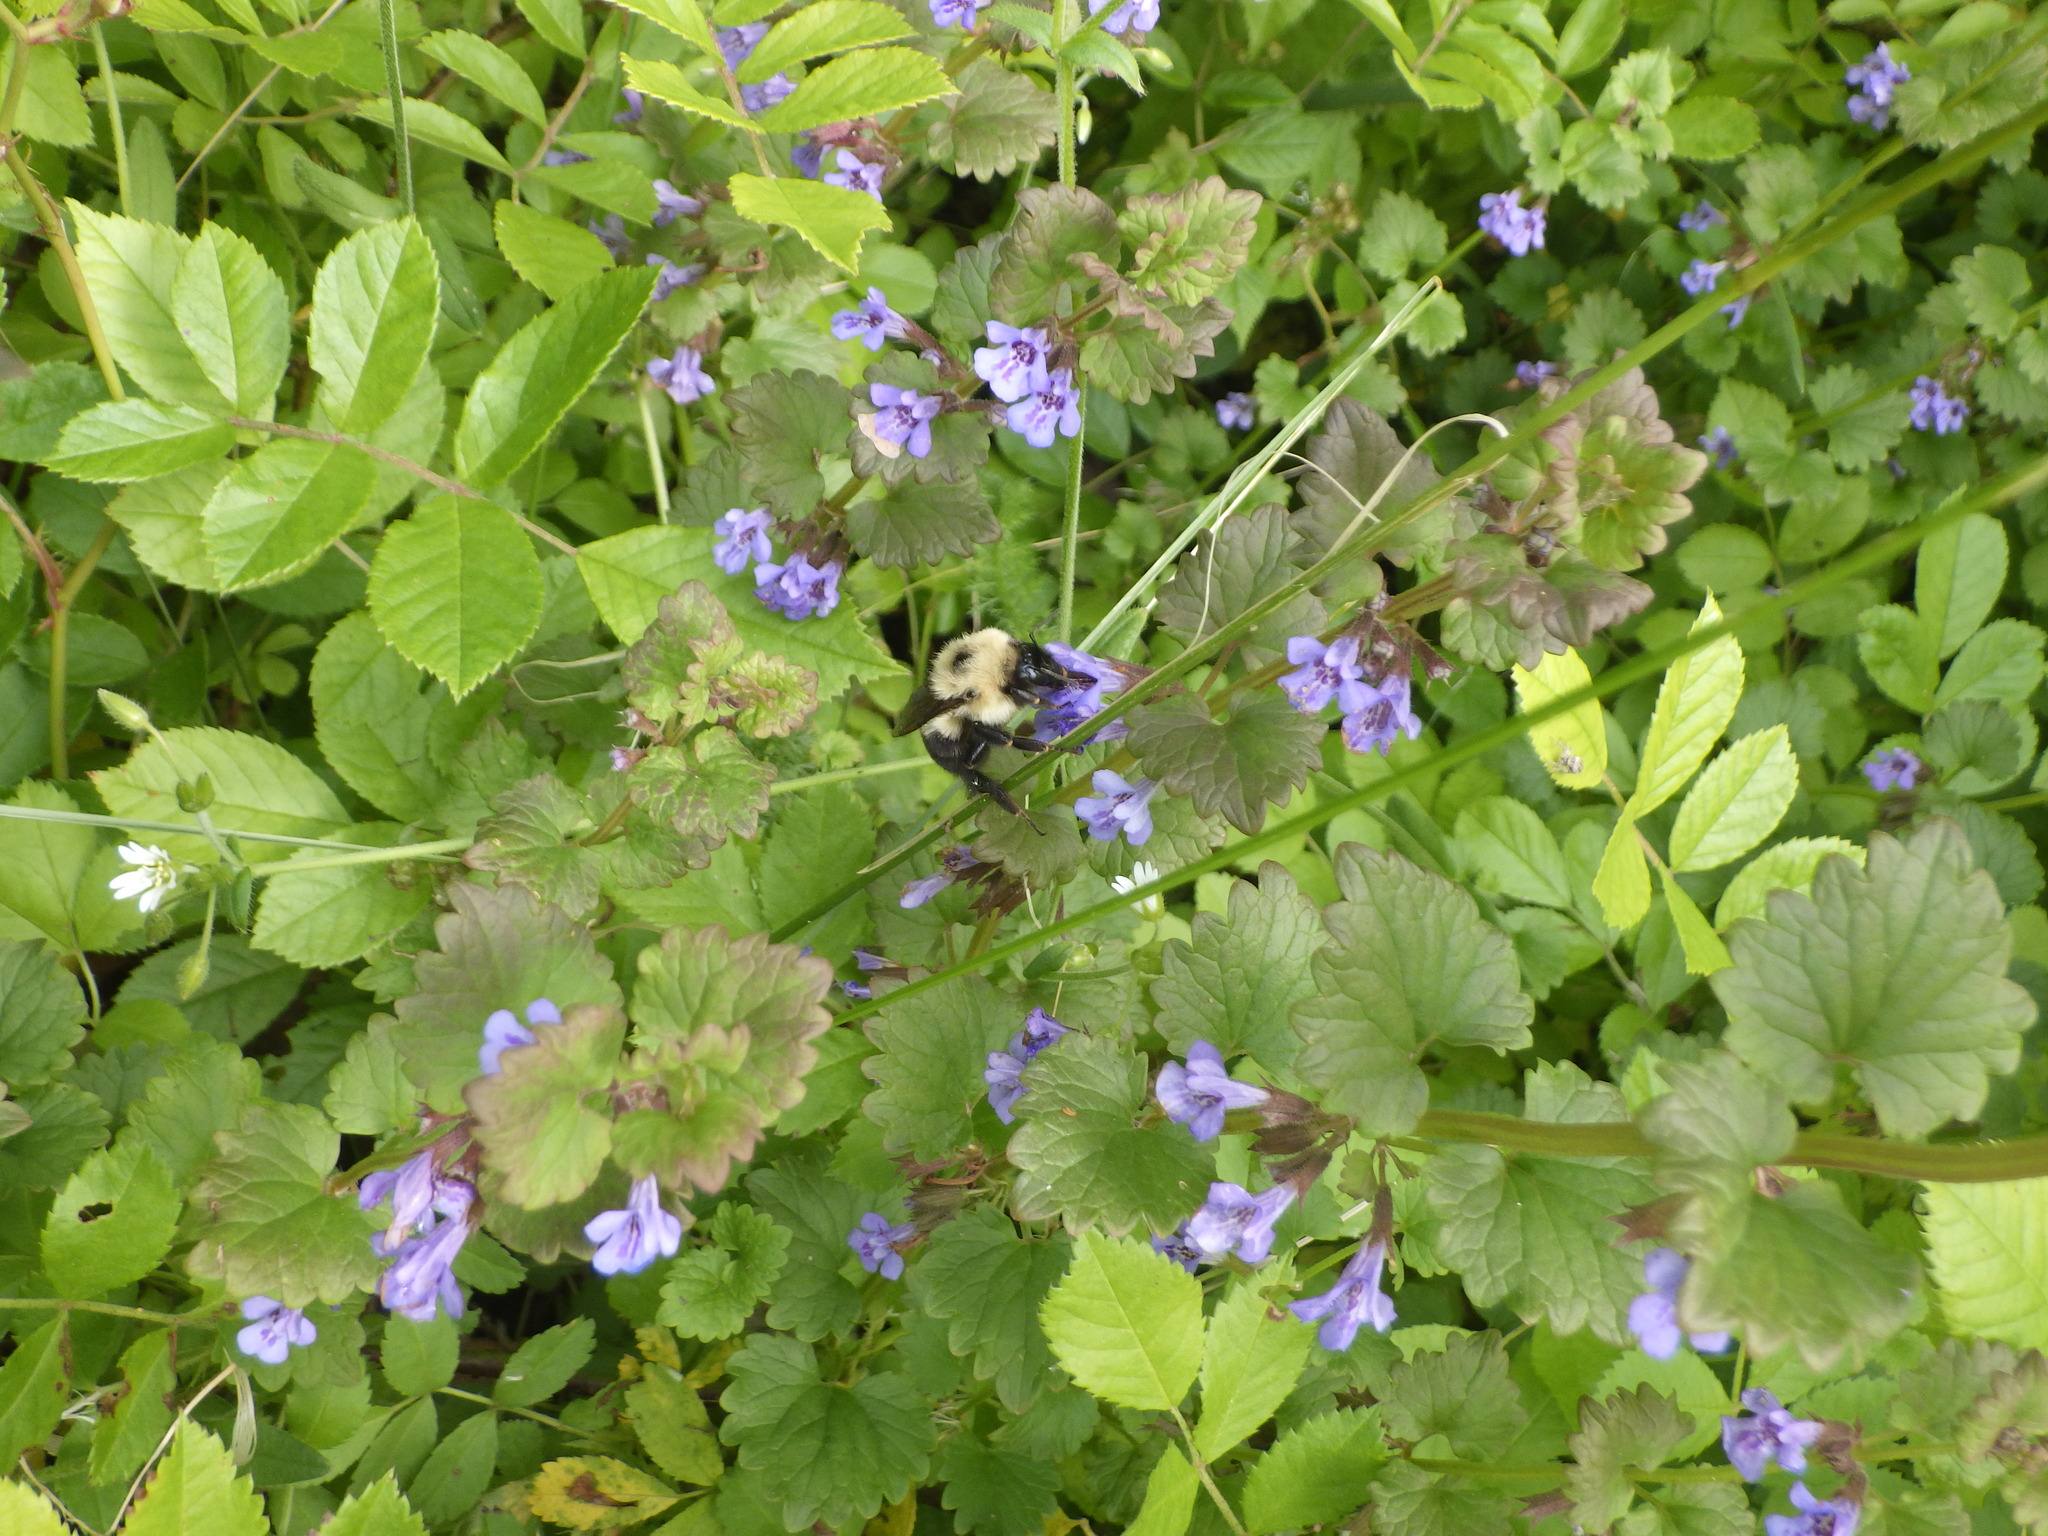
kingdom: Plantae
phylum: Tracheophyta
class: Magnoliopsida
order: Lamiales
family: Lamiaceae
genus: Glechoma
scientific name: Glechoma hederacea
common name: Ground ivy
